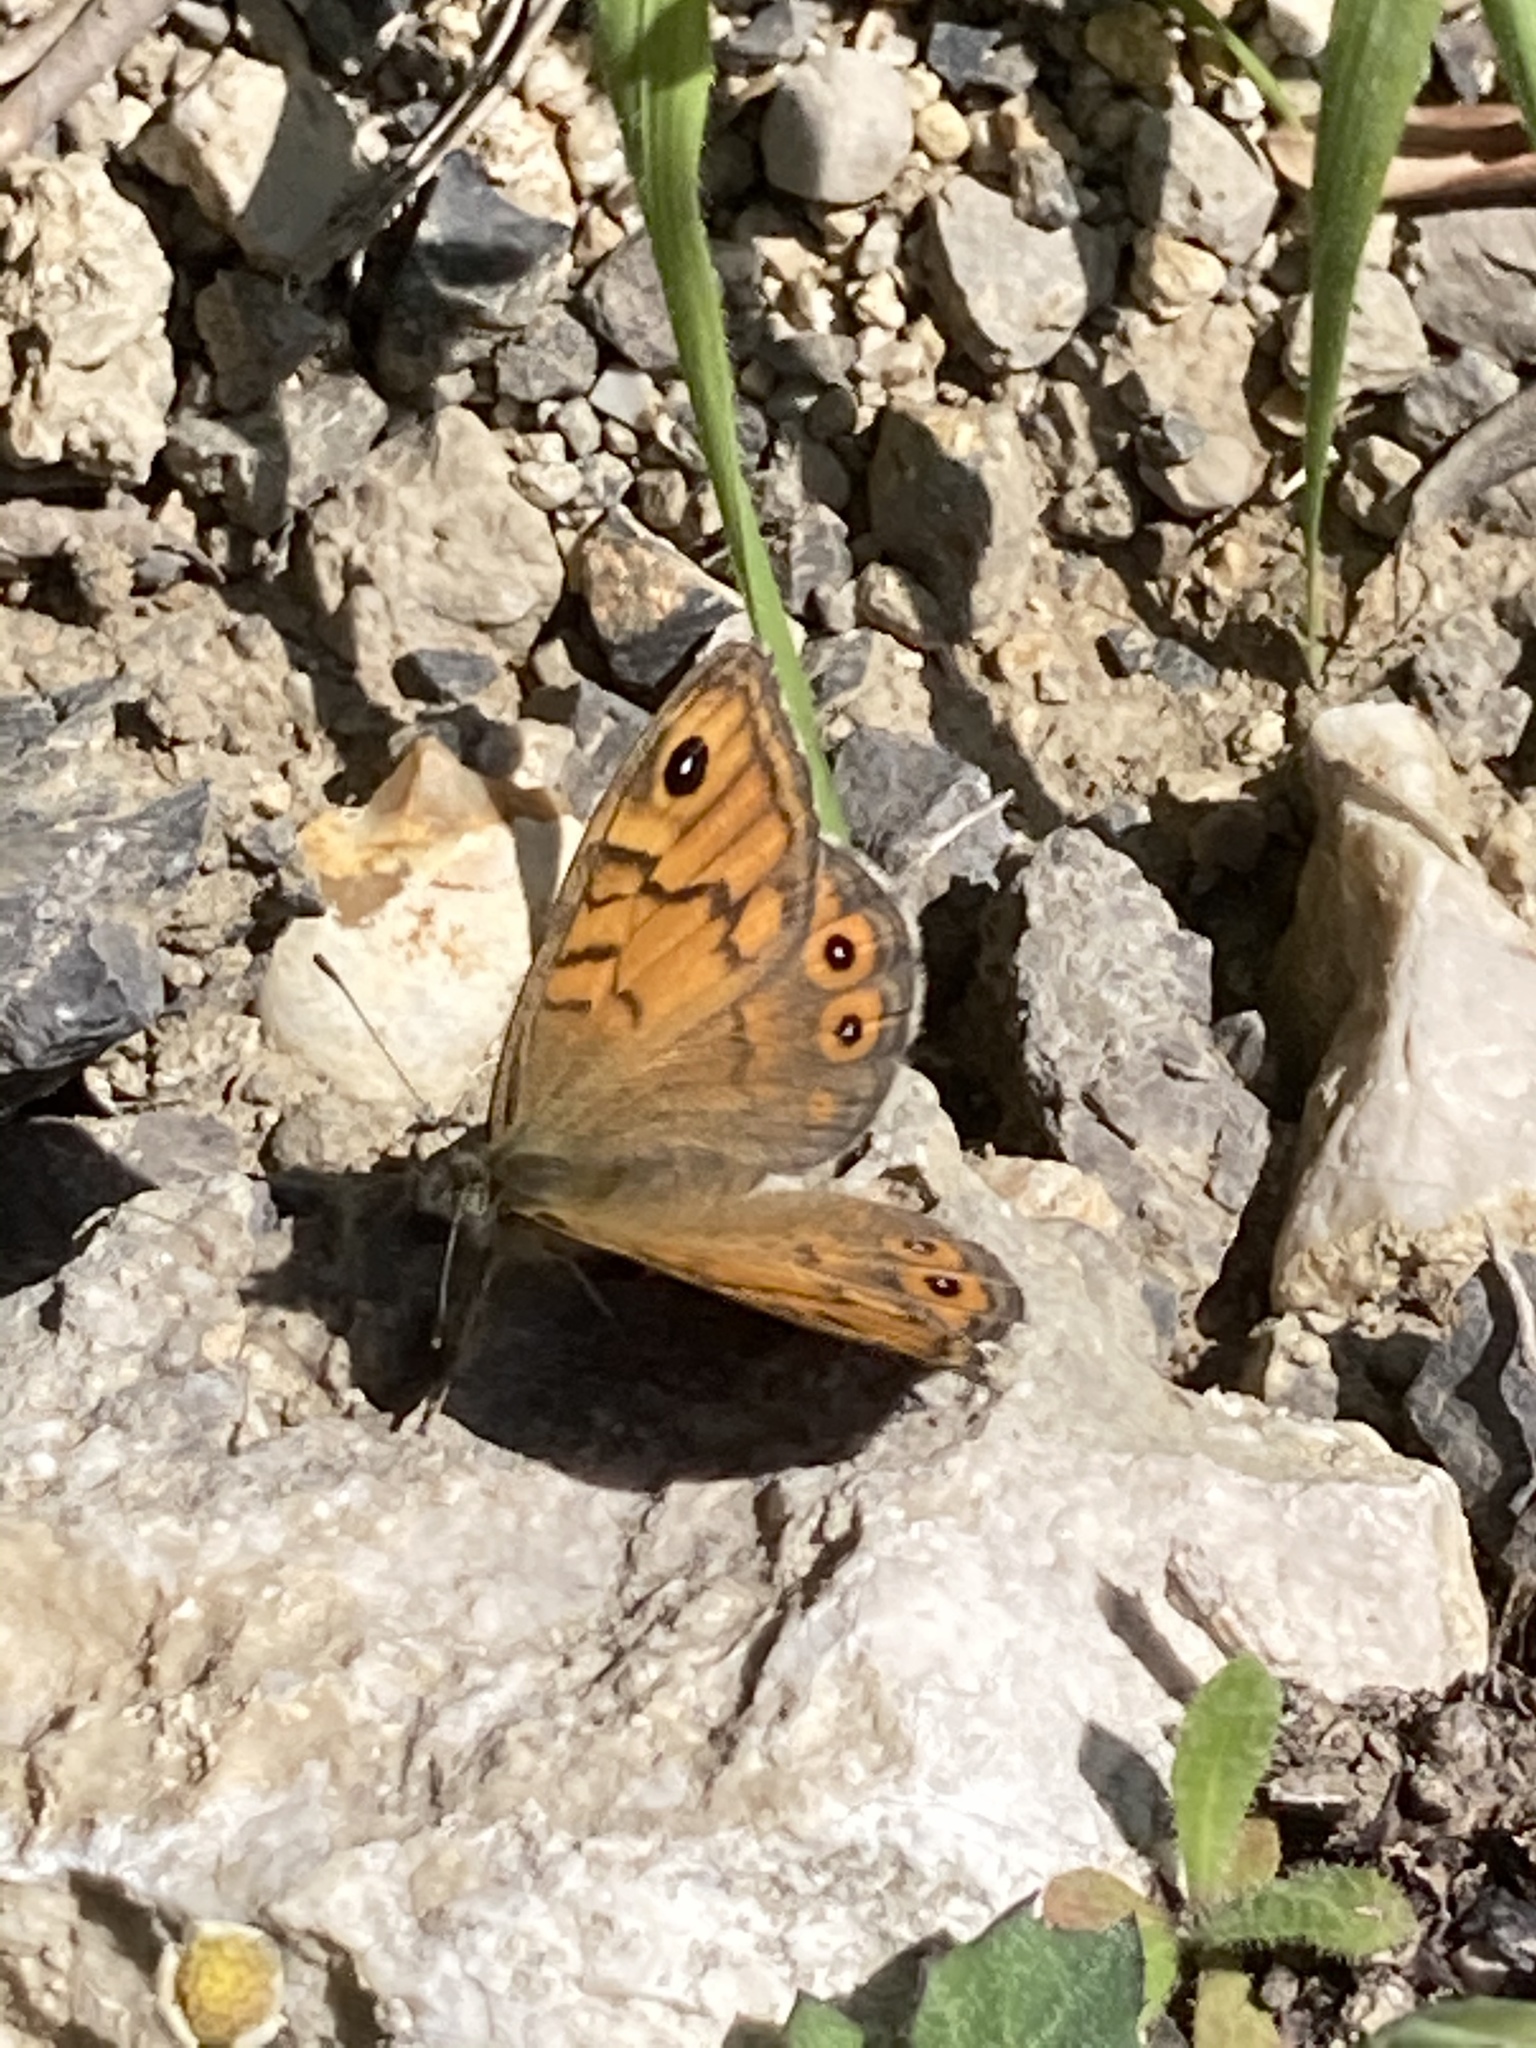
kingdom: Animalia
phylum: Arthropoda
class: Insecta
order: Lepidoptera
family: Nymphalidae
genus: Pararge
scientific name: Pararge Lasiommata megera
